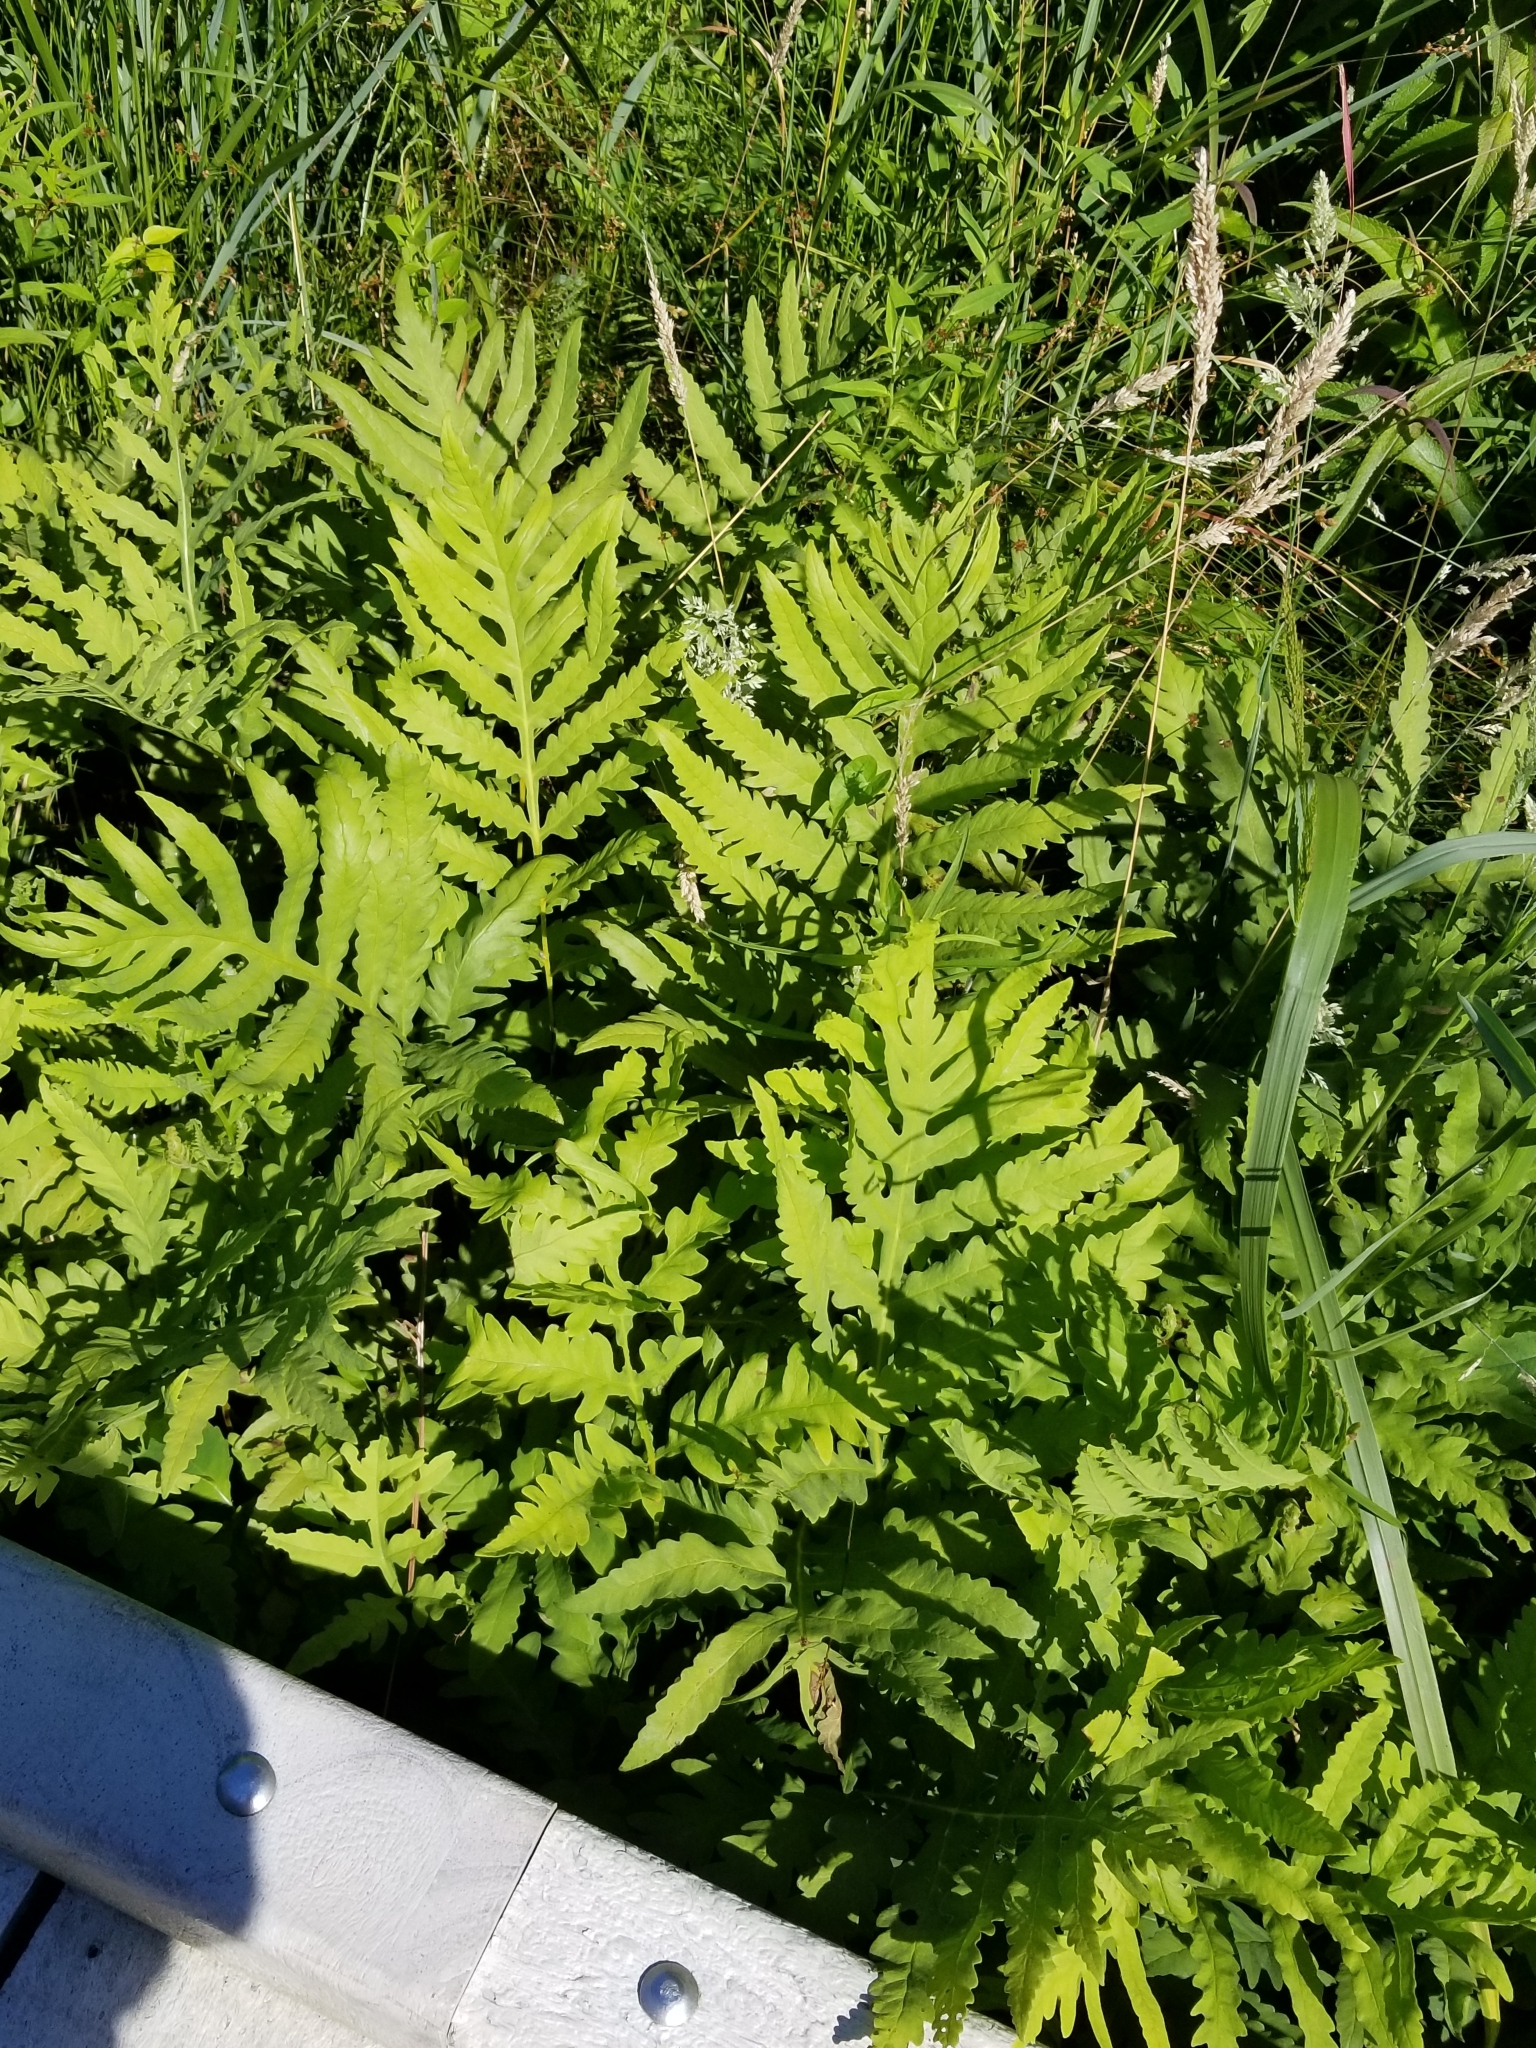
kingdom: Plantae
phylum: Tracheophyta
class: Polypodiopsida
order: Polypodiales
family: Onocleaceae
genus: Onoclea
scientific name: Onoclea sensibilis
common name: Sensitive fern
